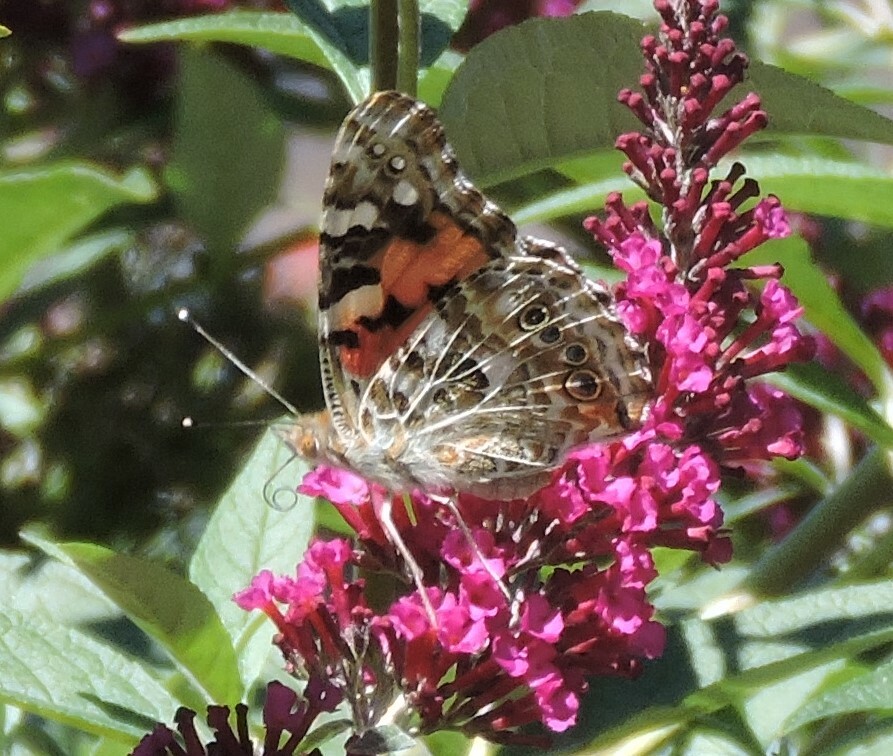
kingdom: Animalia
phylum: Arthropoda
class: Insecta
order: Lepidoptera
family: Nymphalidae
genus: Vanessa
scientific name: Vanessa cardui
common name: Painted lady
